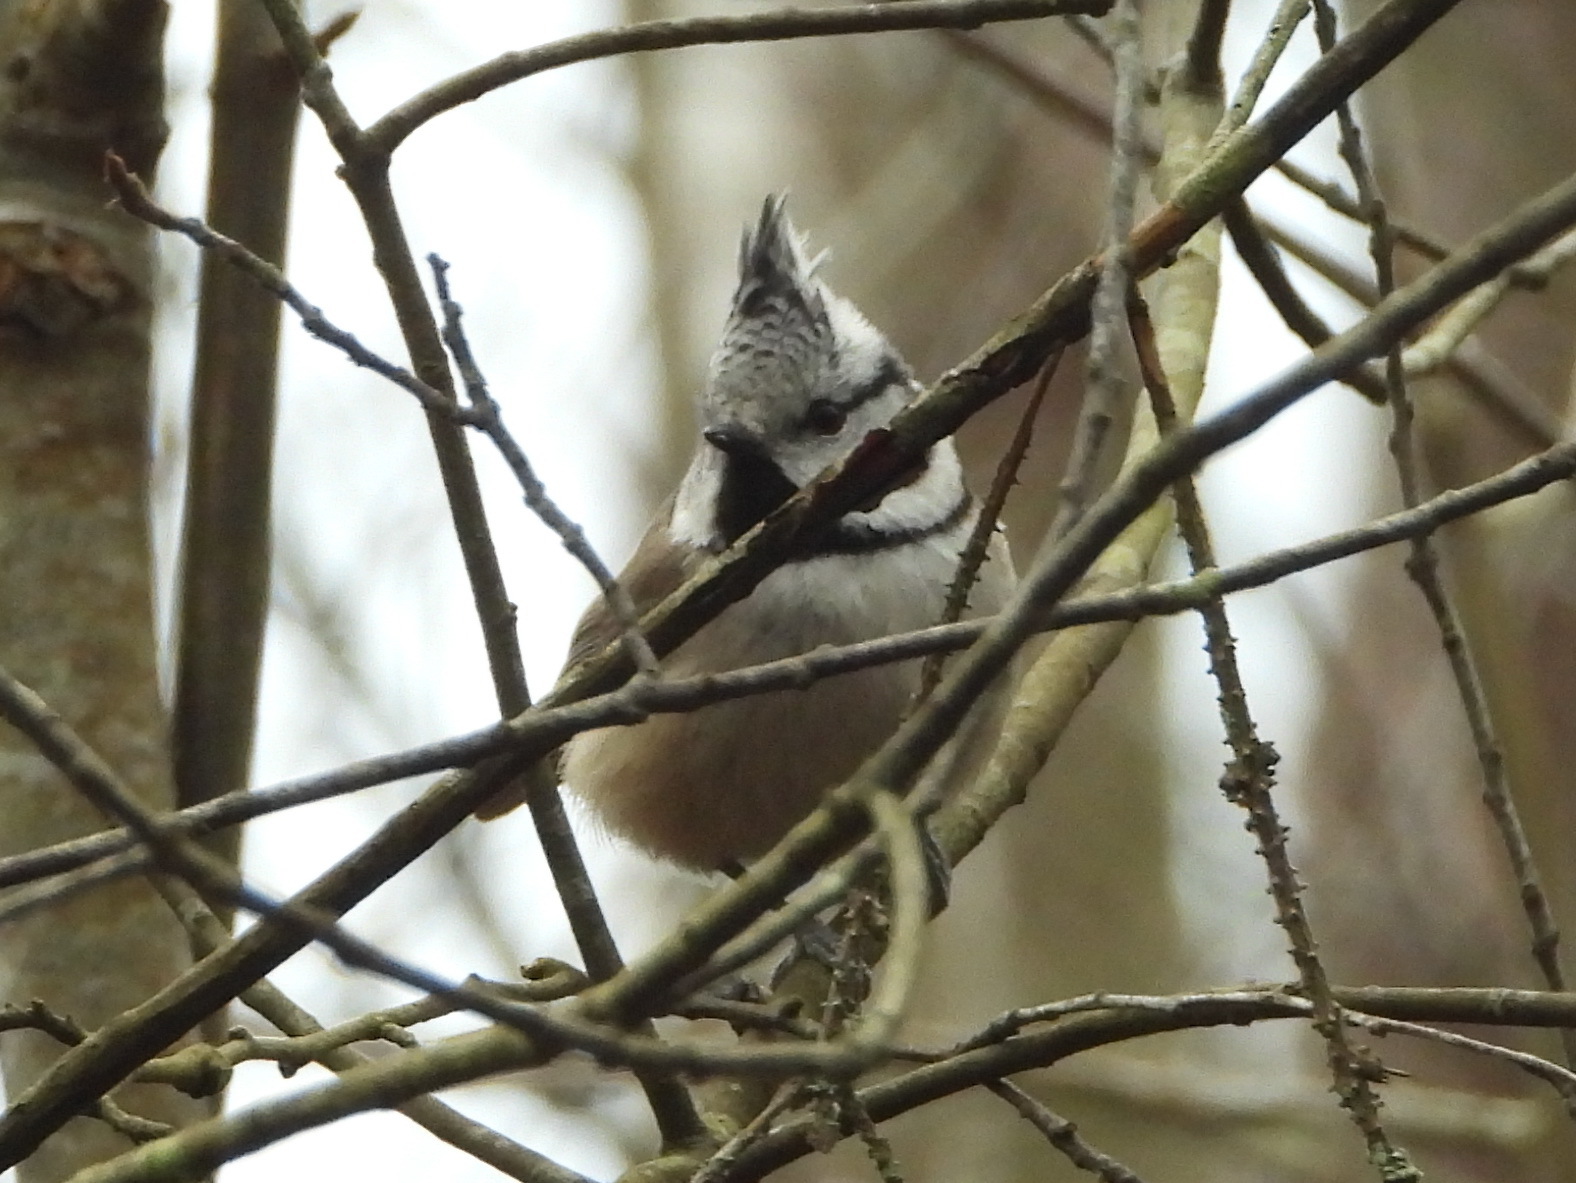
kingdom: Animalia
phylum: Chordata
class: Aves
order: Passeriformes
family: Paridae
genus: Lophophanes
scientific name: Lophophanes cristatus
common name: European crested tit
